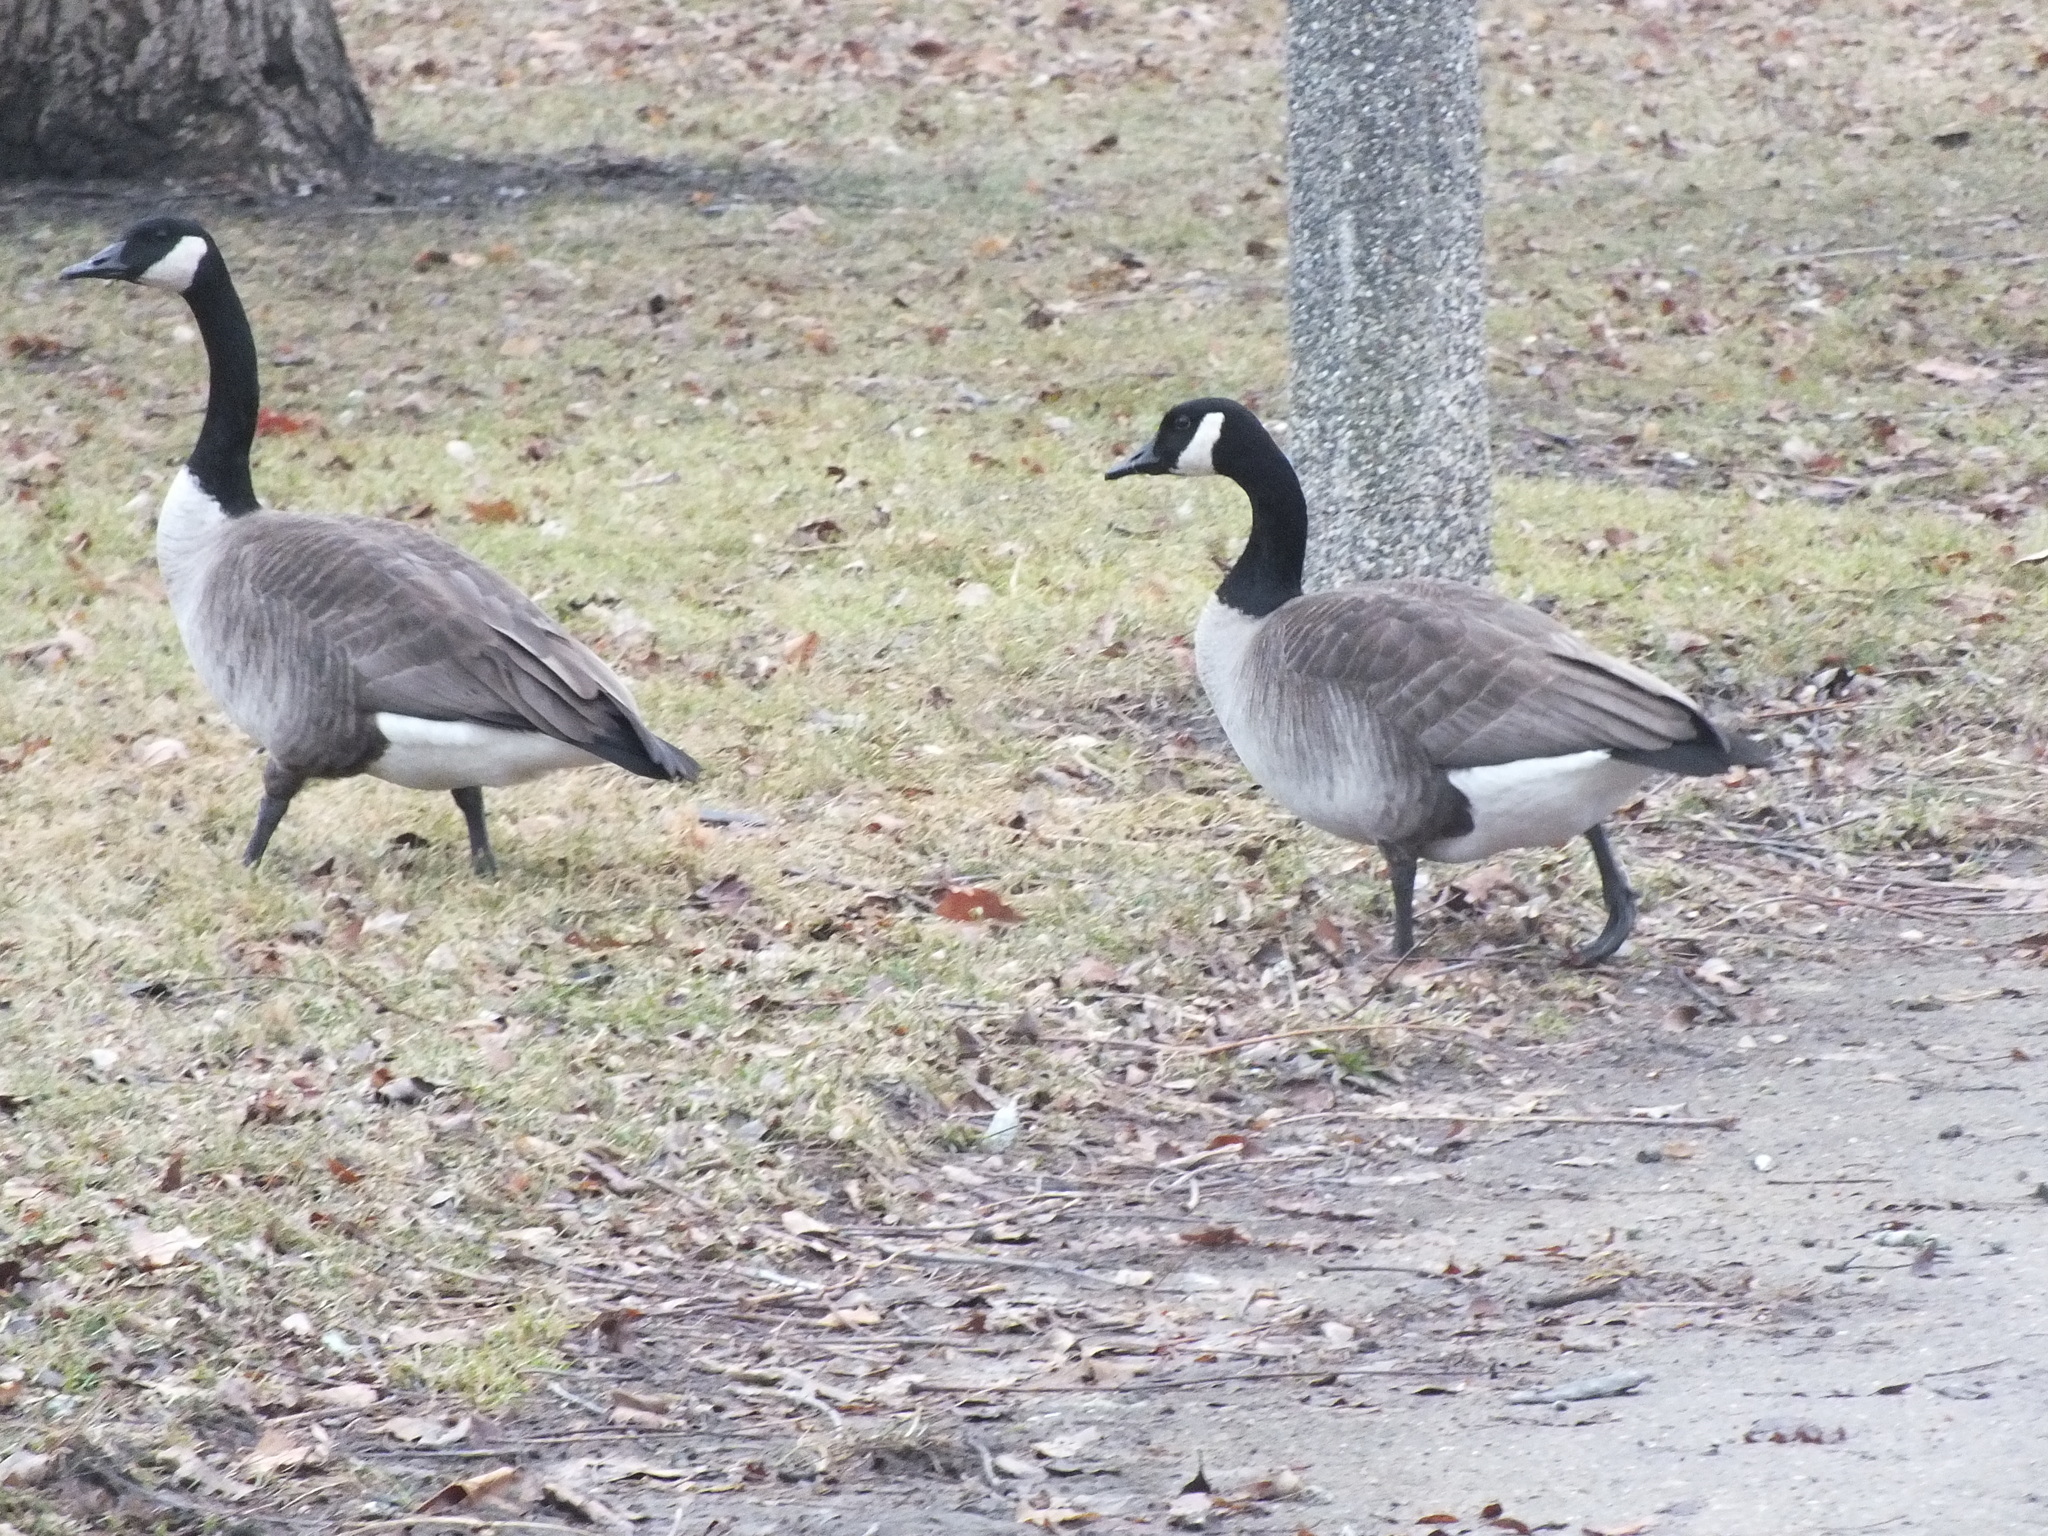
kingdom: Animalia
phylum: Chordata
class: Aves
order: Anseriformes
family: Anatidae
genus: Branta
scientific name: Branta canadensis
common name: Canada goose
